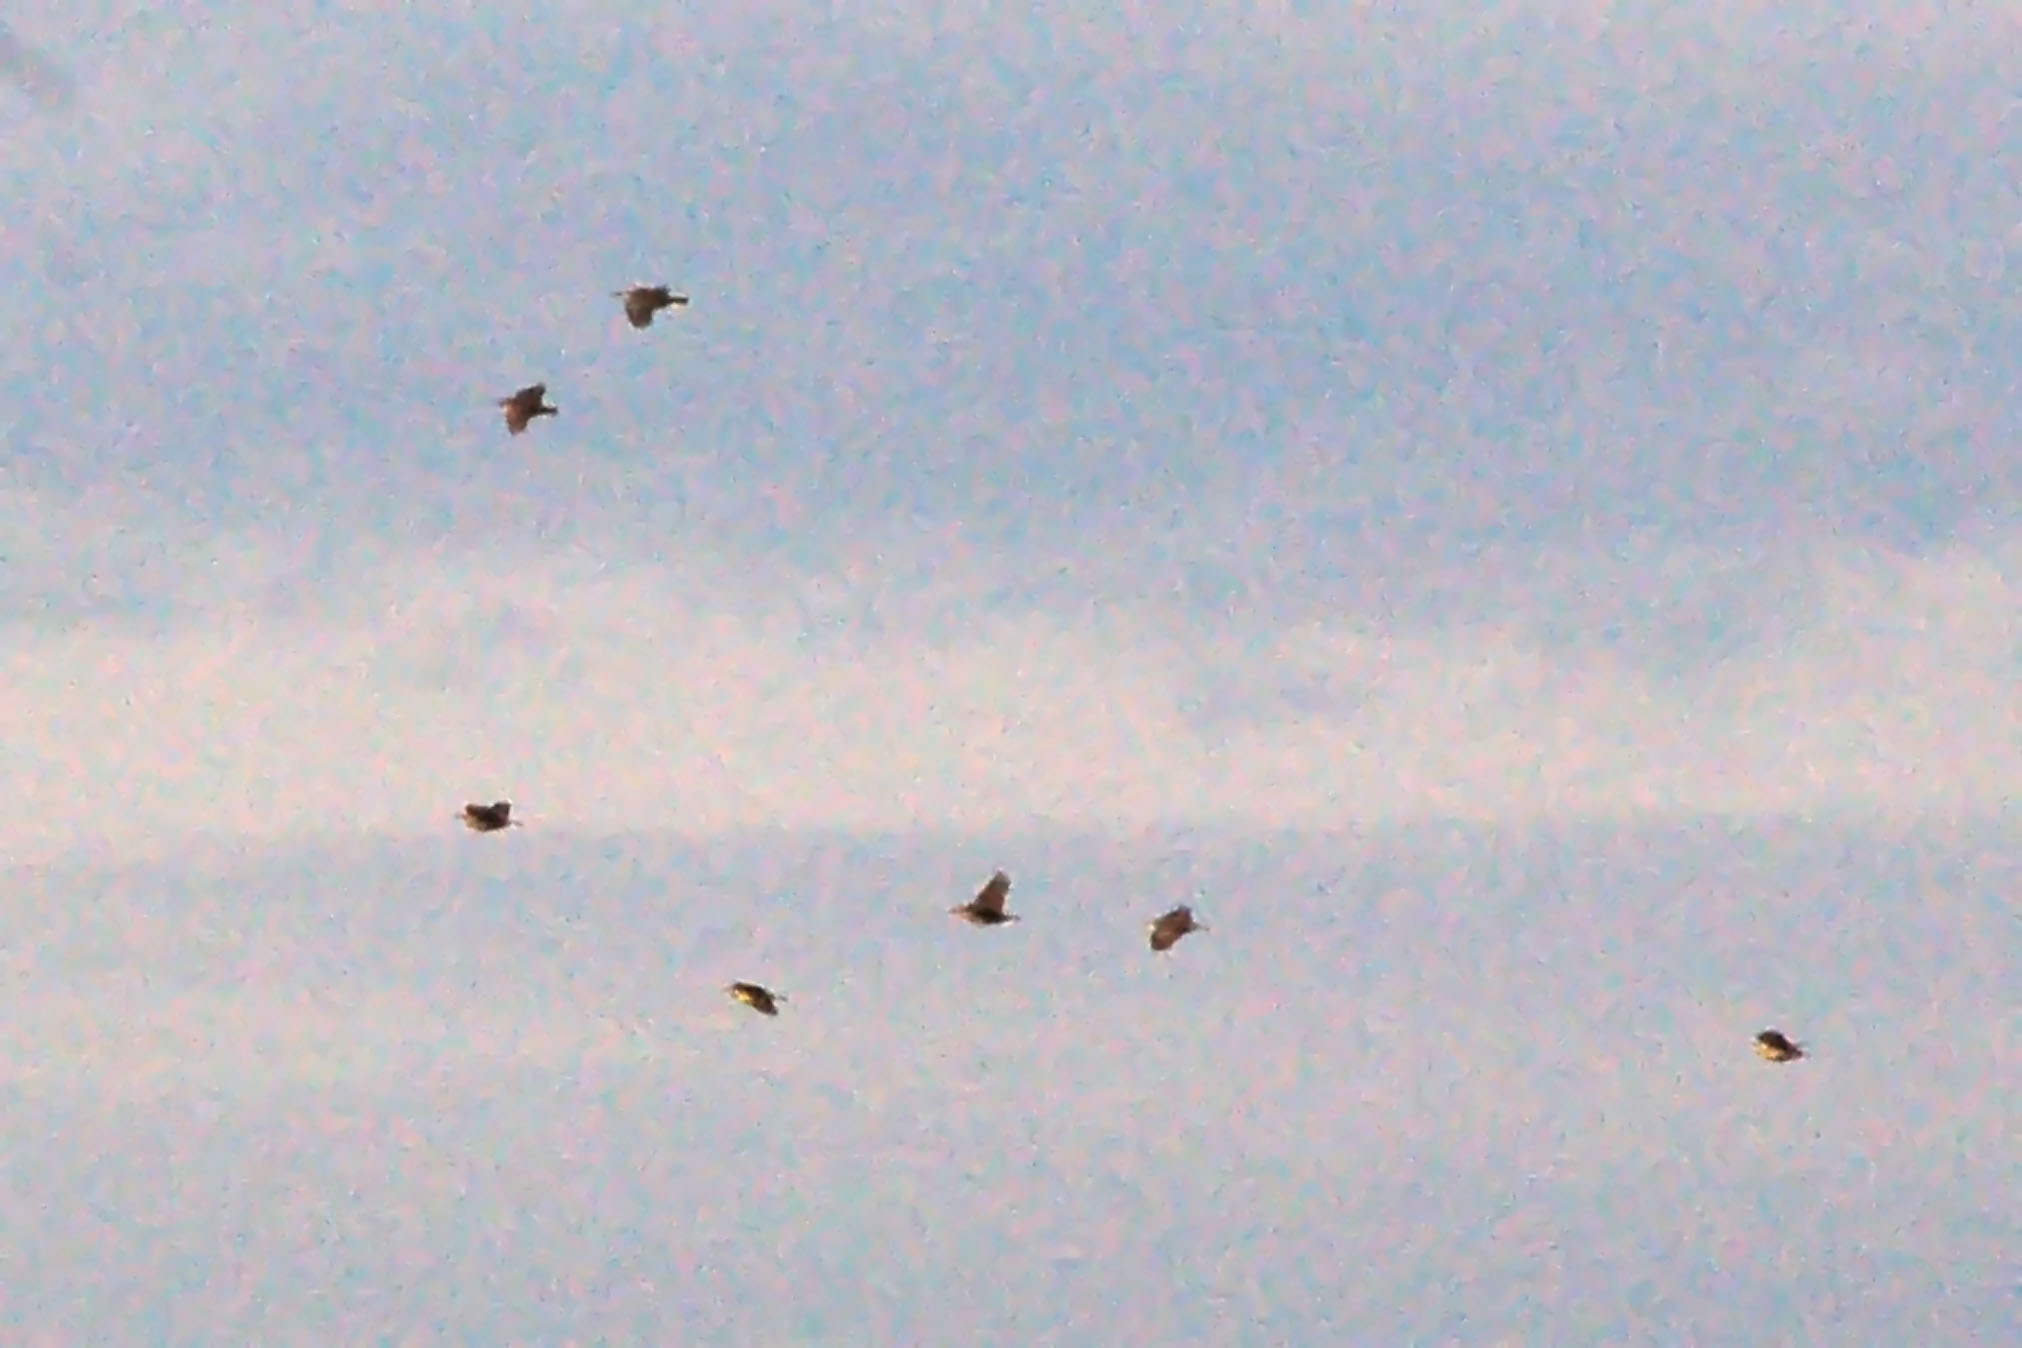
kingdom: Animalia
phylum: Chordata
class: Aves
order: Passeriformes
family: Icteridae
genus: Sturnella
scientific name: Sturnella magna
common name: Eastern meadowlark
